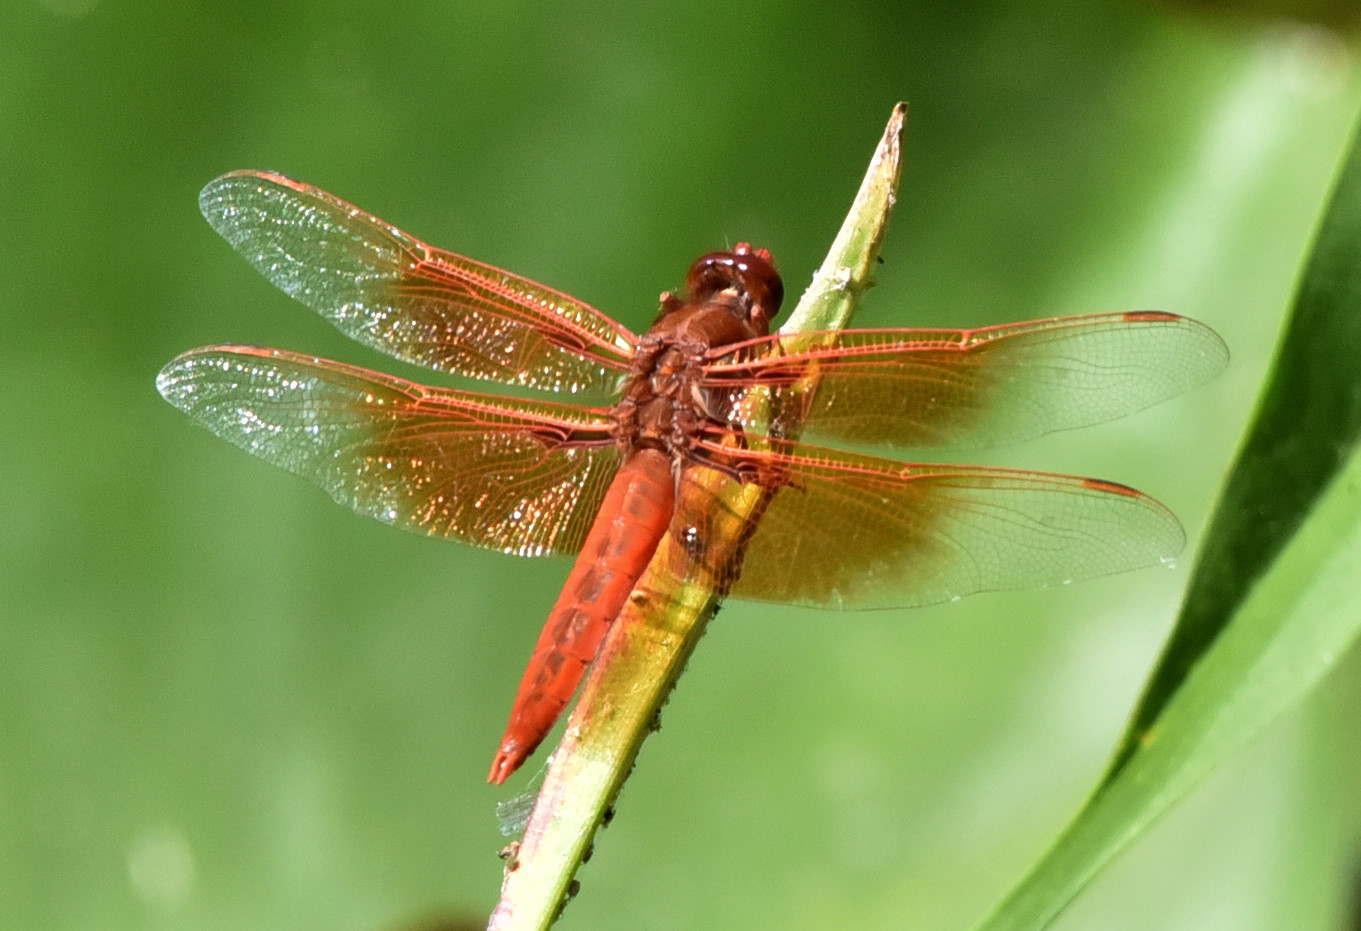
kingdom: Animalia
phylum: Arthropoda
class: Insecta
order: Odonata
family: Libellulidae
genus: Libellula
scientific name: Libellula saturata
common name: Flame skimmer
